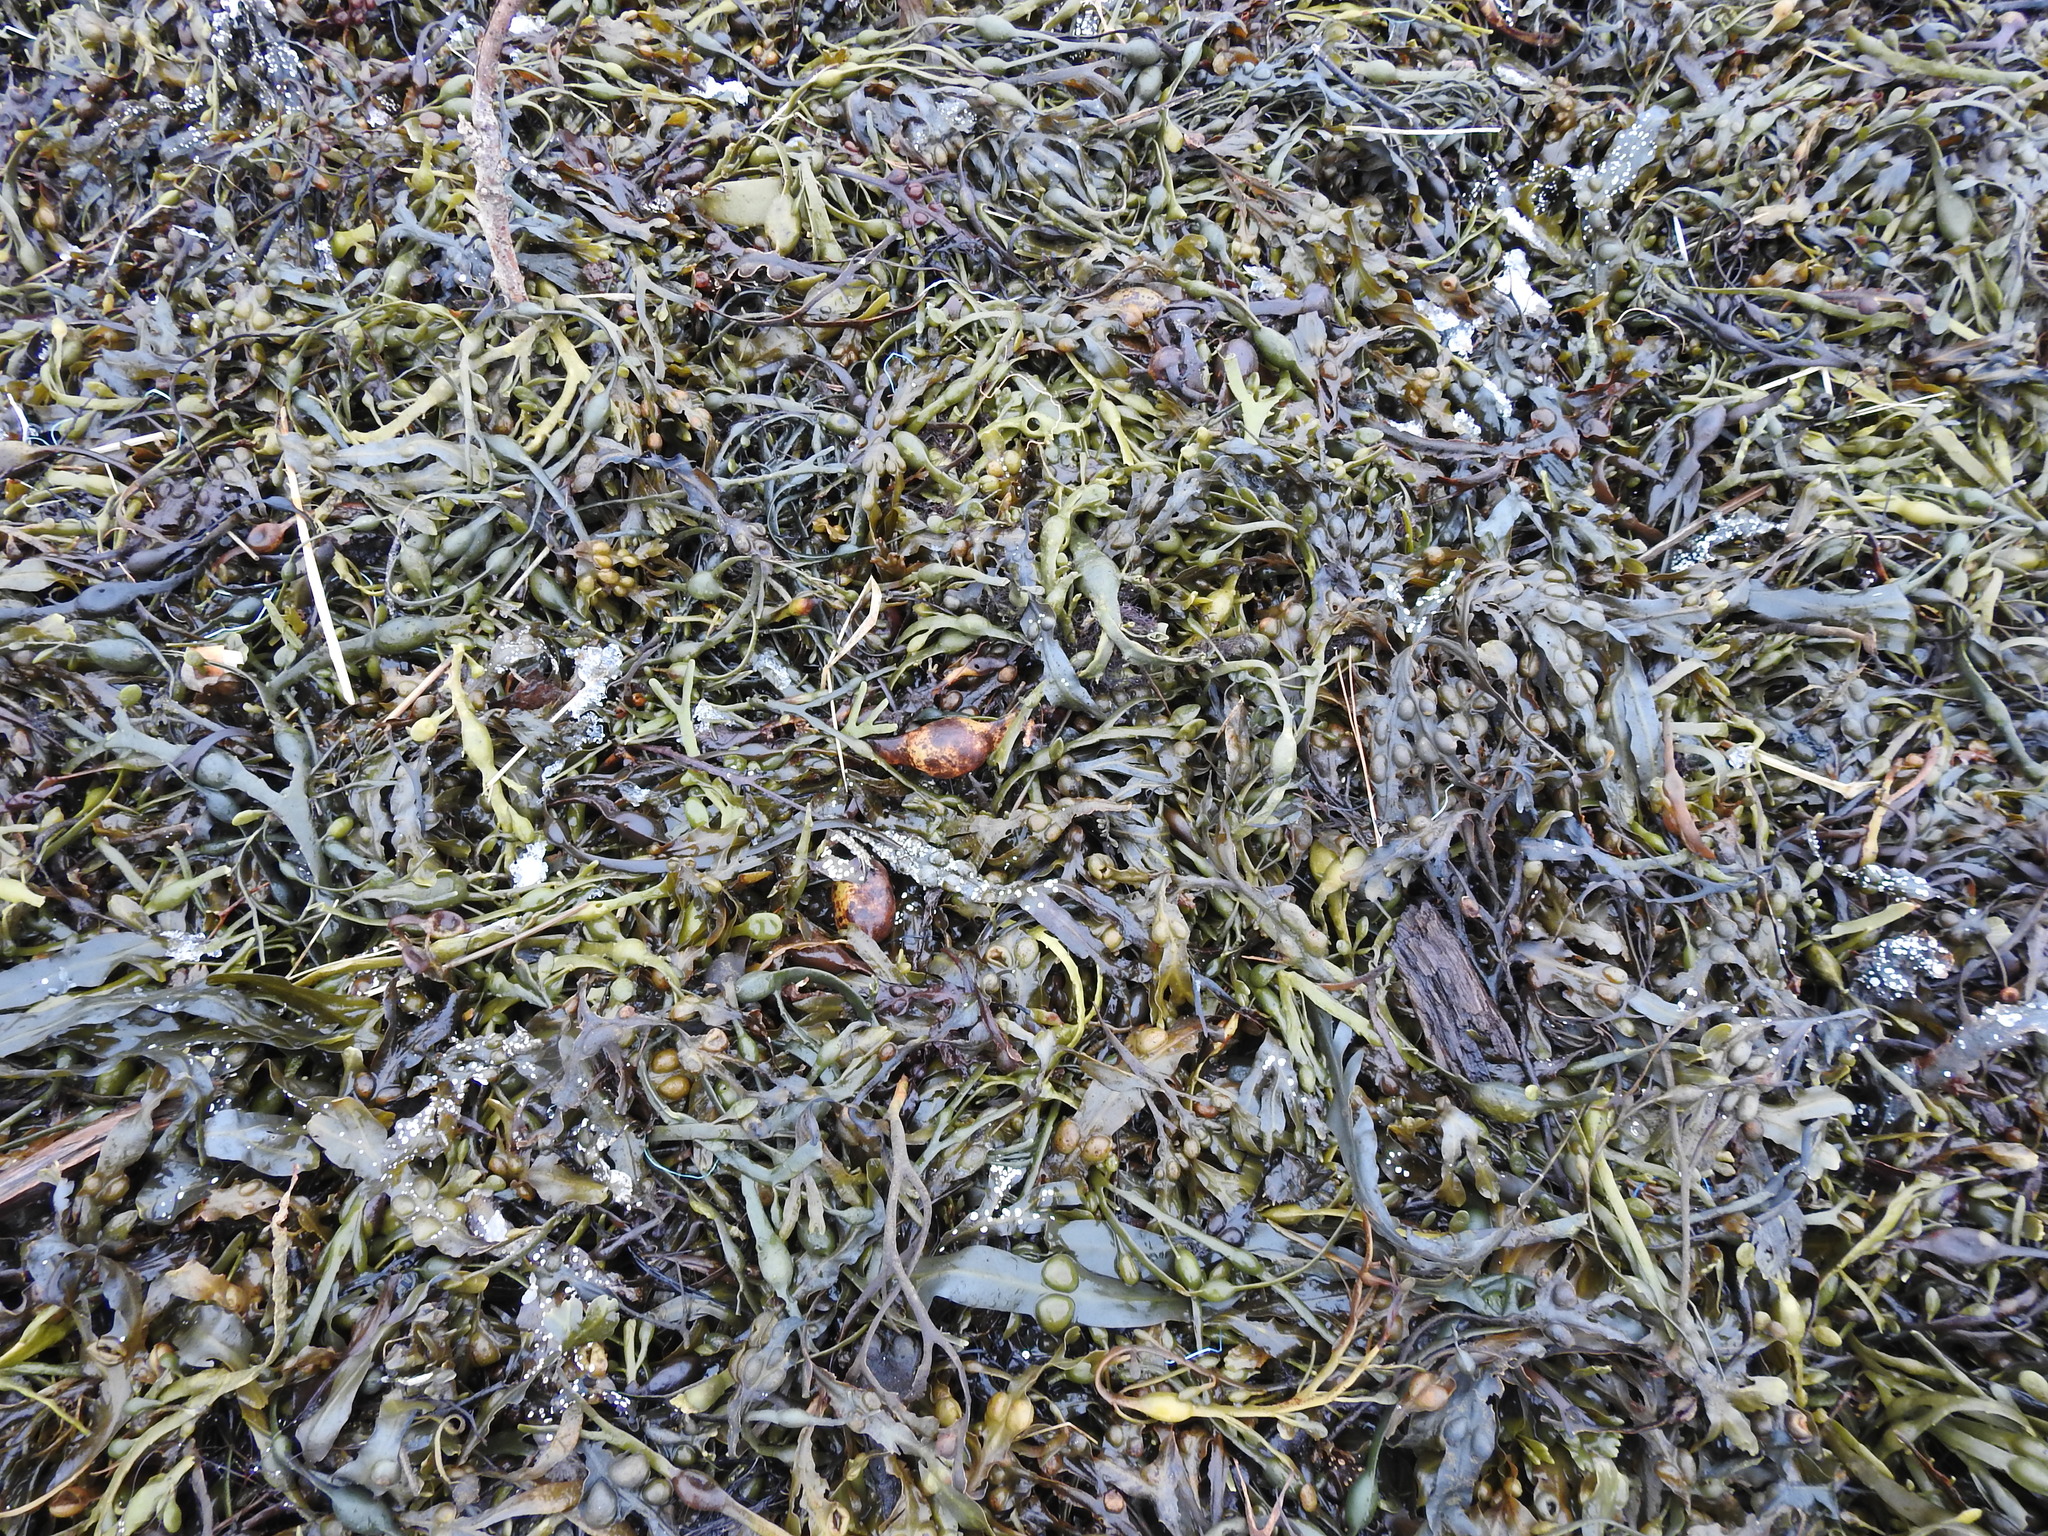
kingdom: Chromista
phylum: Ochrophyta
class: Phaeophyceae
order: Fucales
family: Fucaceae
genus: Ascophyllum
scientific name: Ascophyllum nodosum
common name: Knotted wrack
